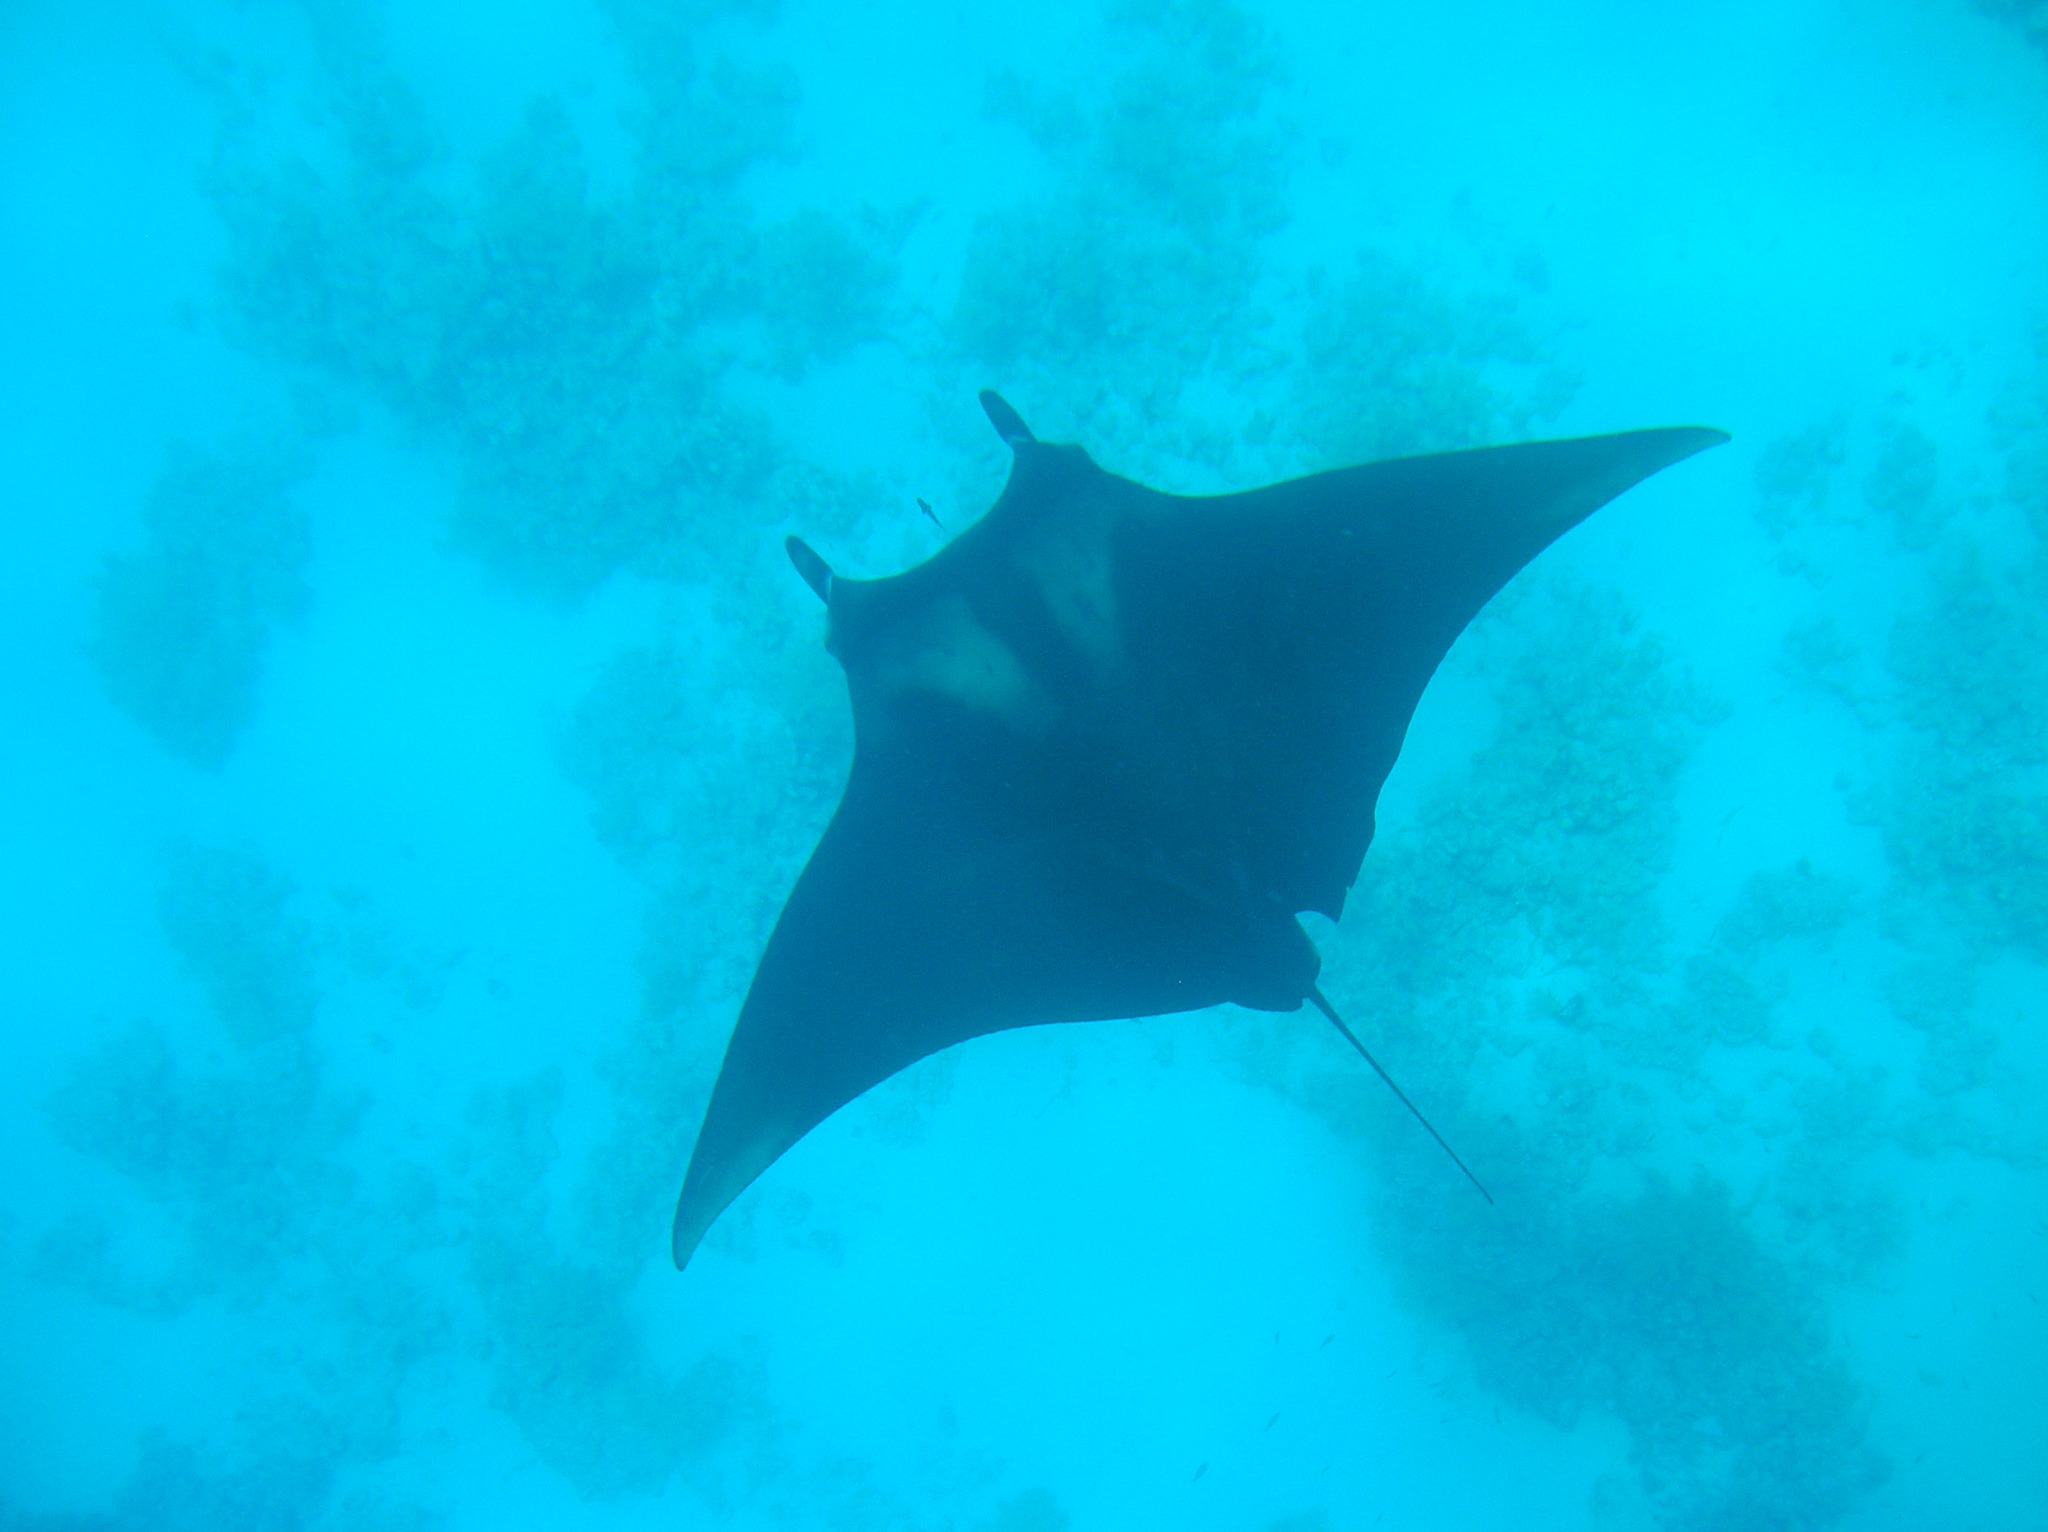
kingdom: Animalia
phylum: Chordata
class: Elasmobranchii
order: Myliobatiformes
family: Myliobatidae
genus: Mobula
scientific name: Mobula birostris
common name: Manta ray
